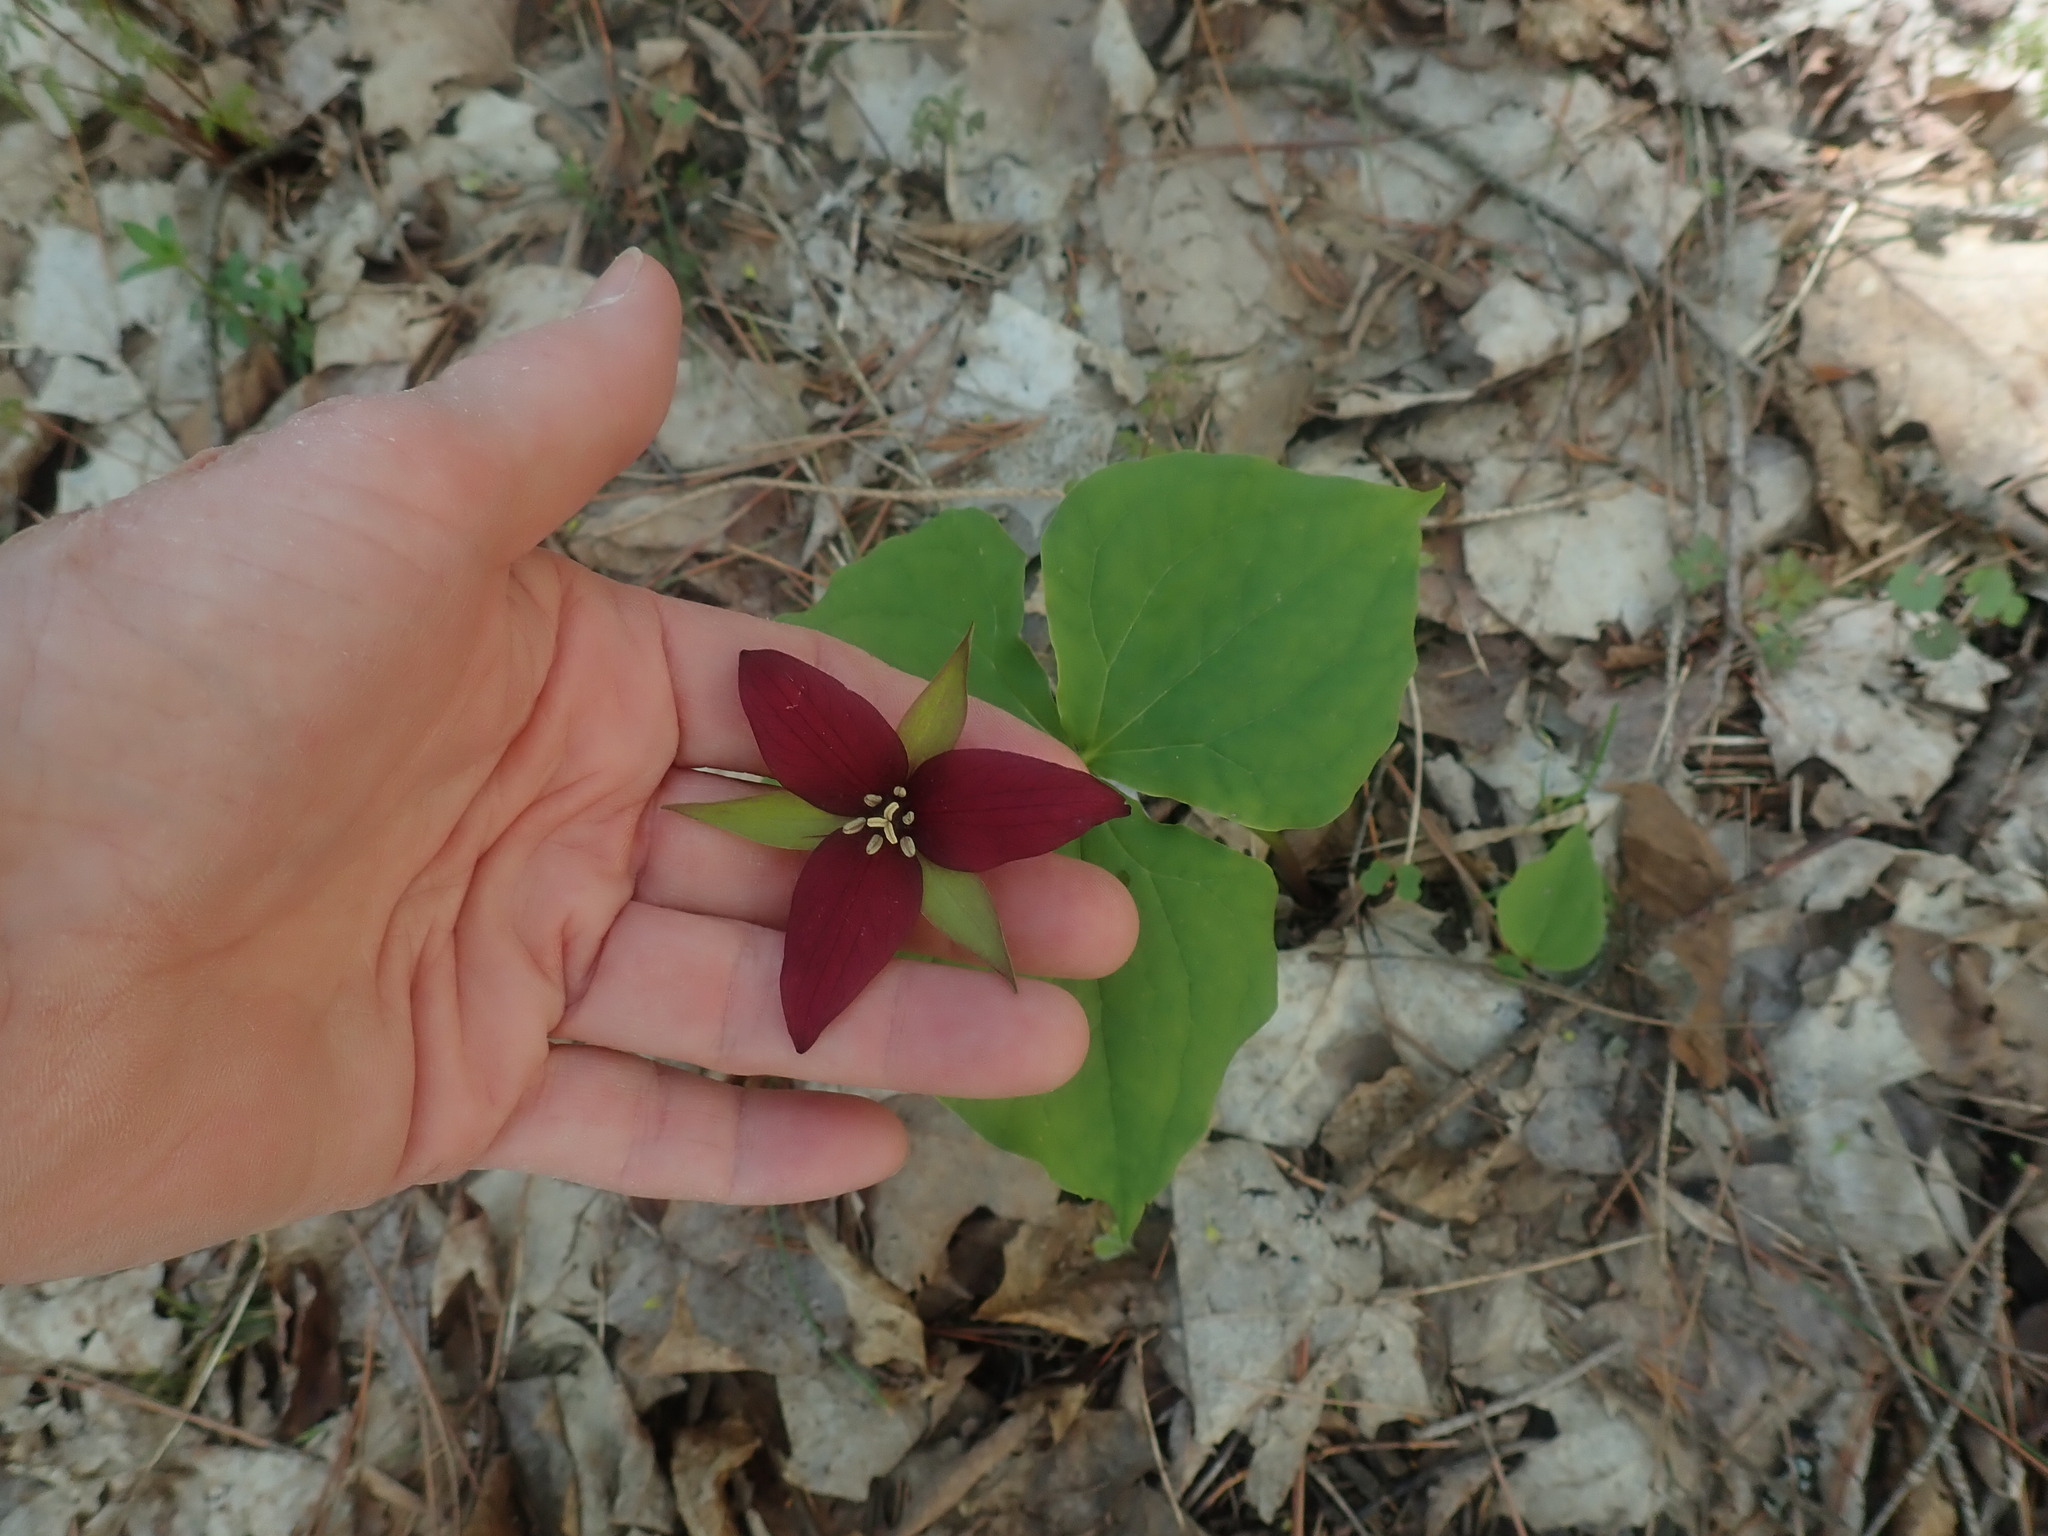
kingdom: Plantae
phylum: Tracheophyta
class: Liliopsida
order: Liliales
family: Melanthiaceae
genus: Trillium
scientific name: Trillium erectum
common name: Purple trillium
